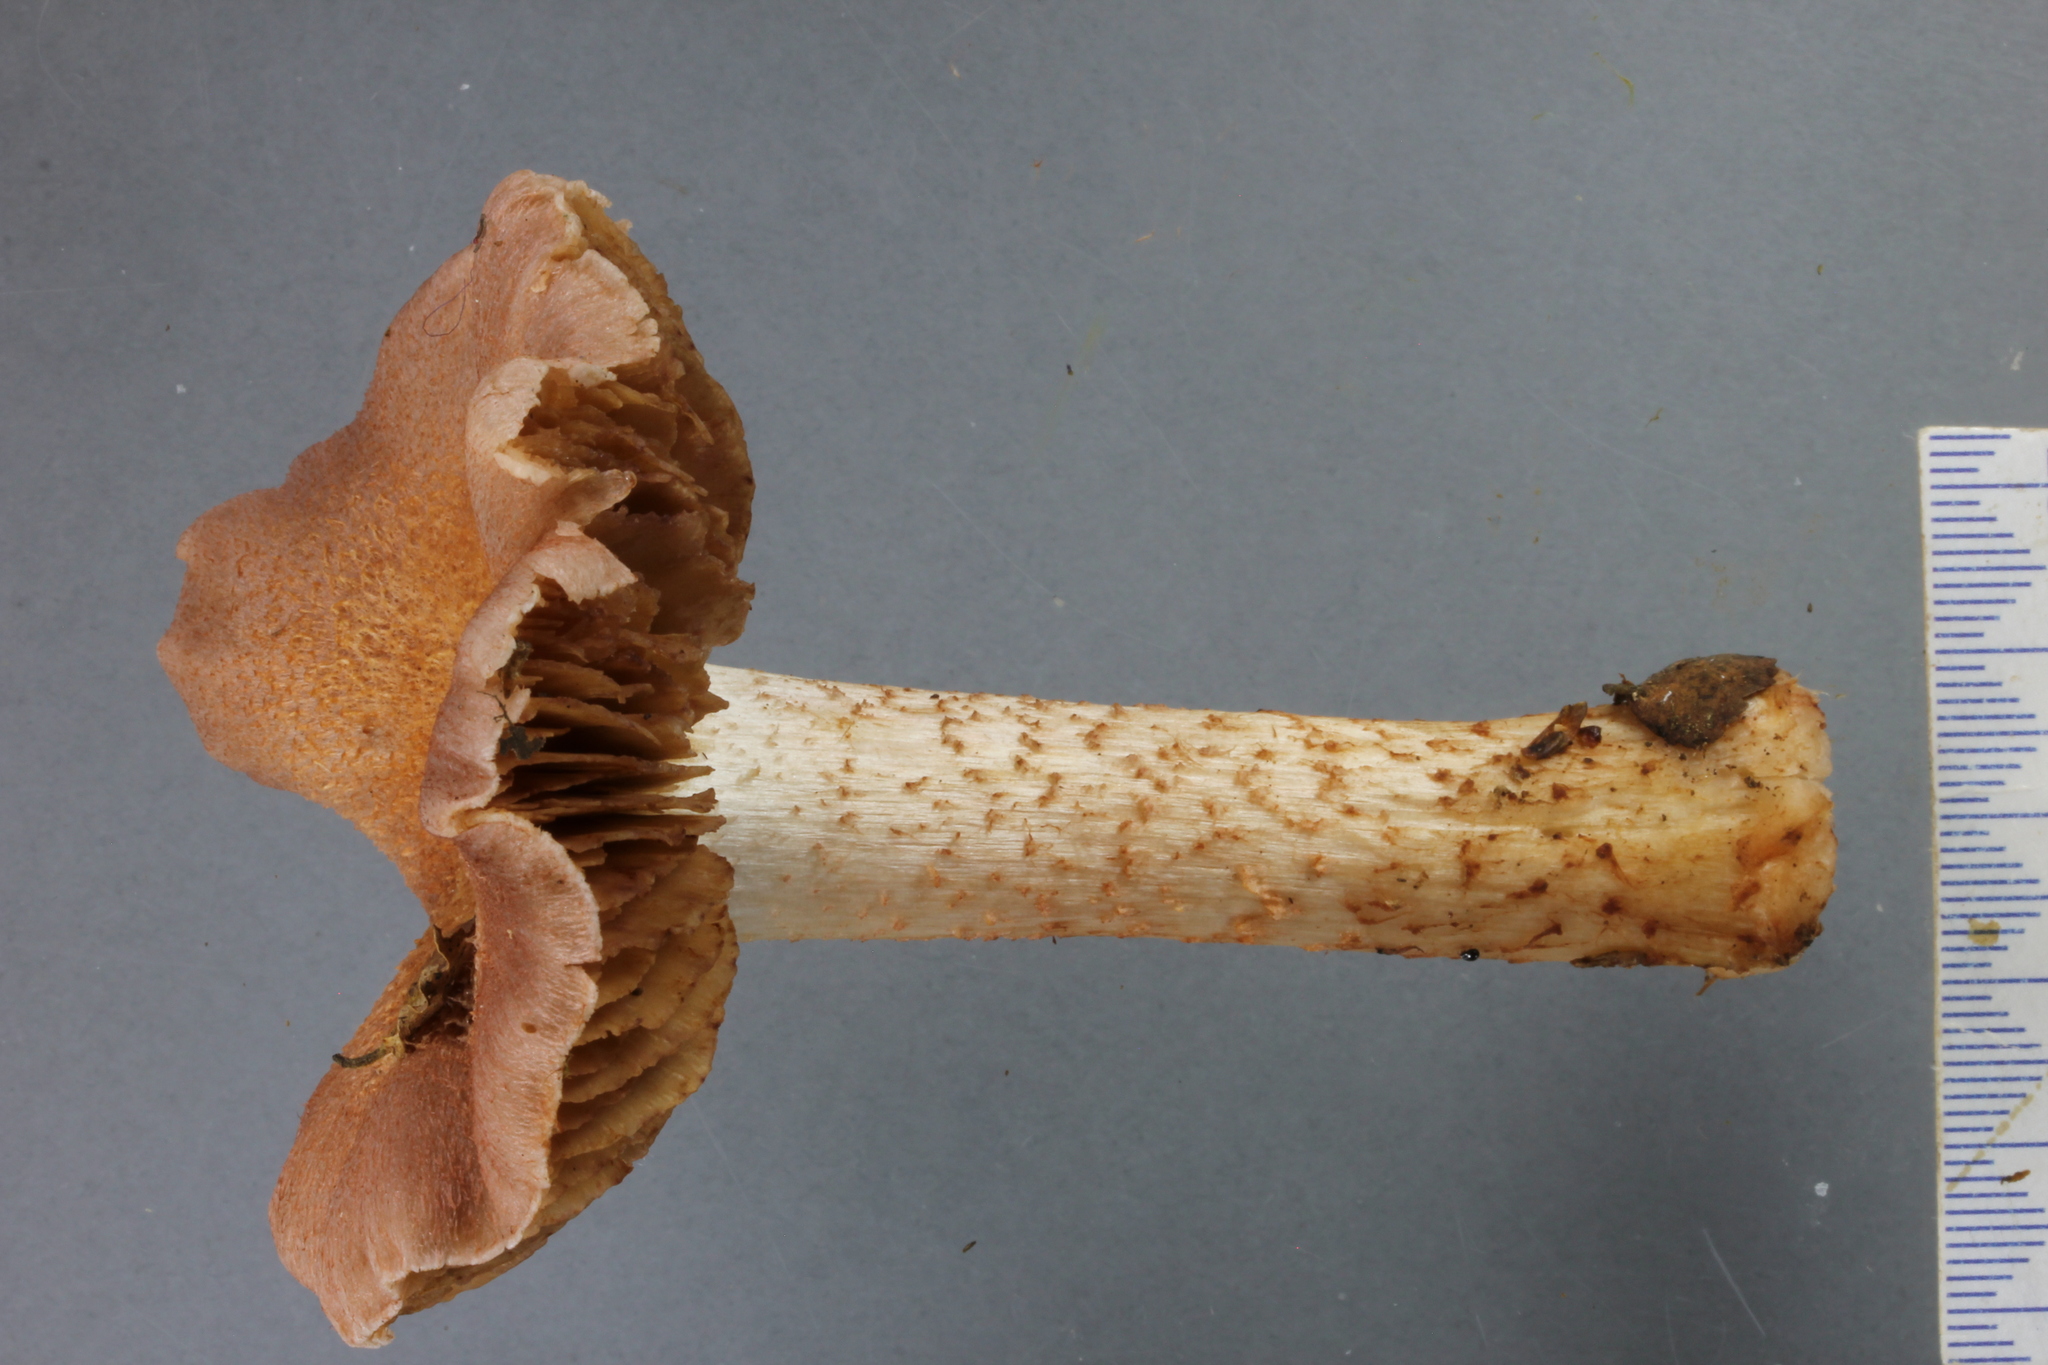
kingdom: Fungi
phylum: Basidiomycota
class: Agaricomycetes
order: Agaricales
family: Cortinariaceae
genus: Cortinarius
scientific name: Cortinarius alboroseus
